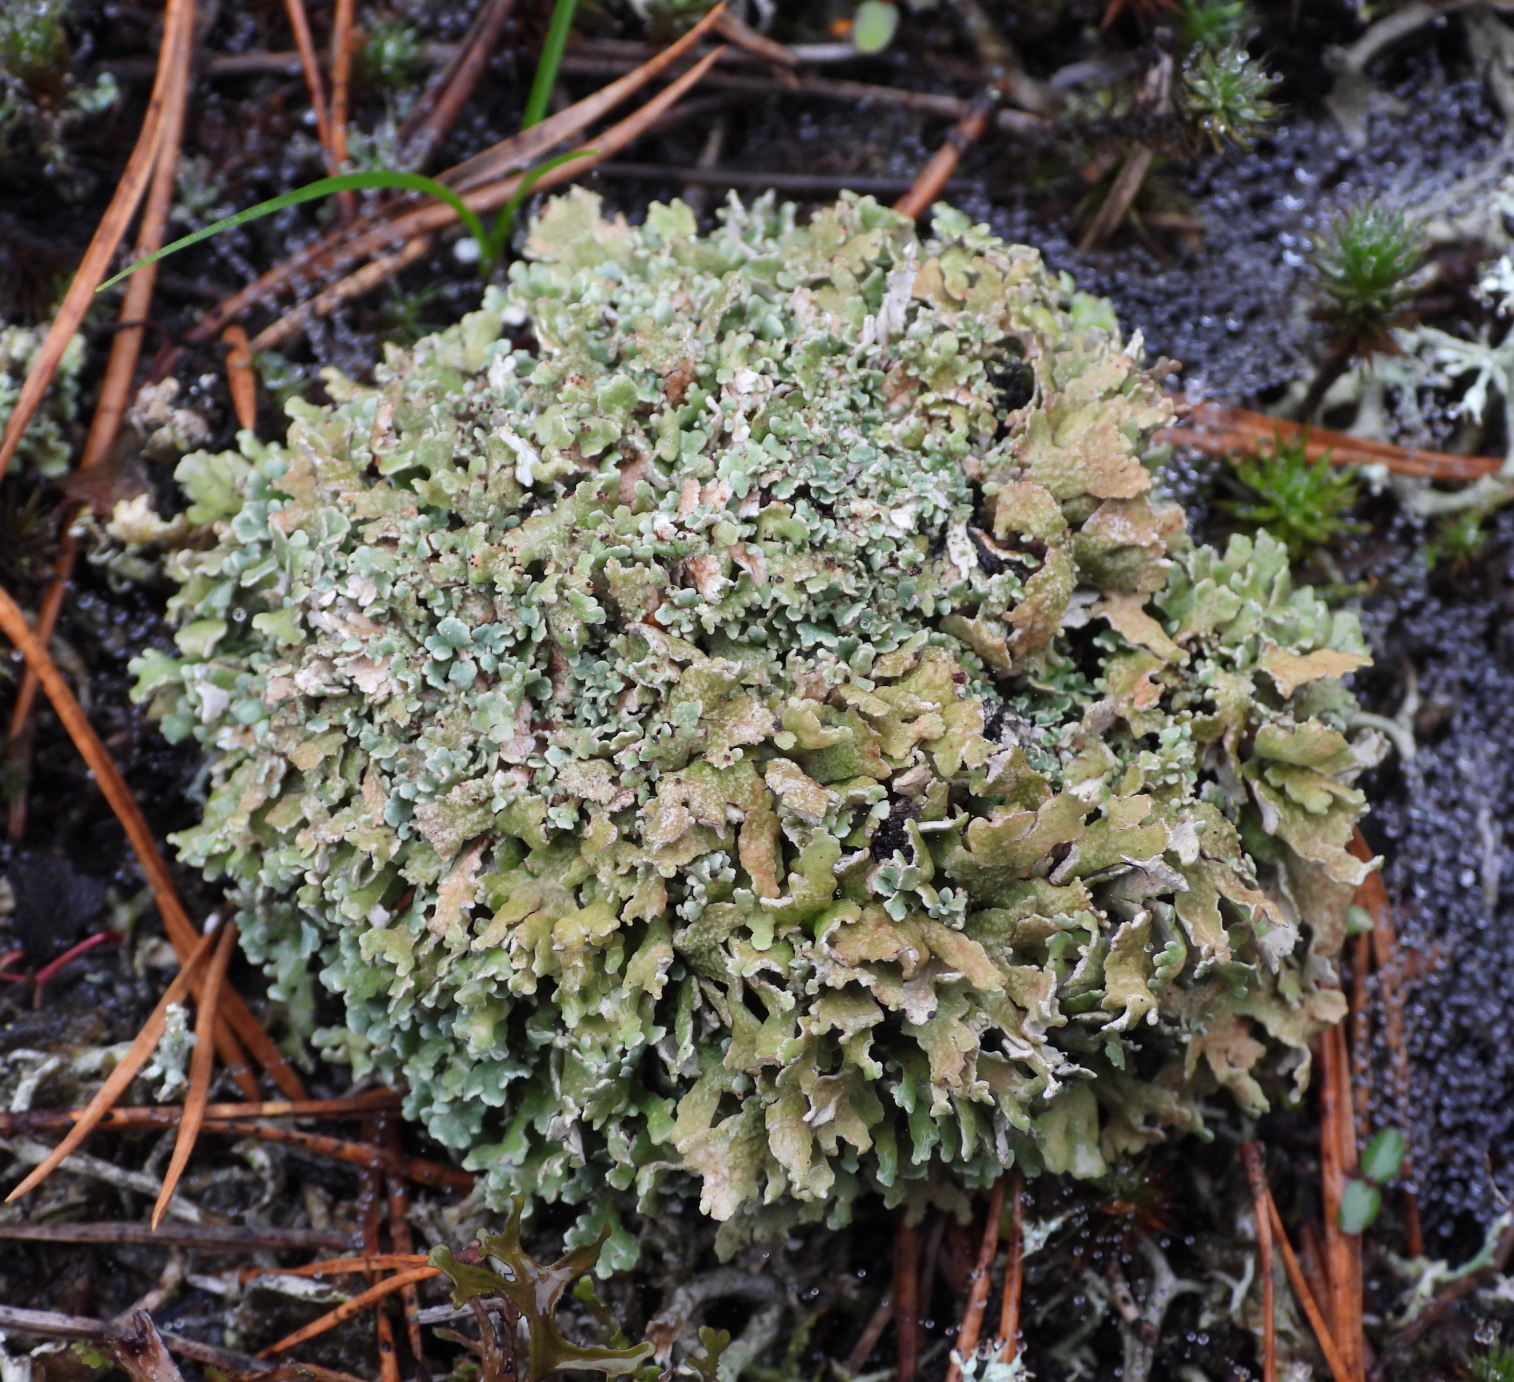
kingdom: Fungi
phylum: Ascomycota
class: Lecanoromycetes
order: Lecanorales
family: Cladoniaceae
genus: Cladonia
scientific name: Cladonia strepsilis
